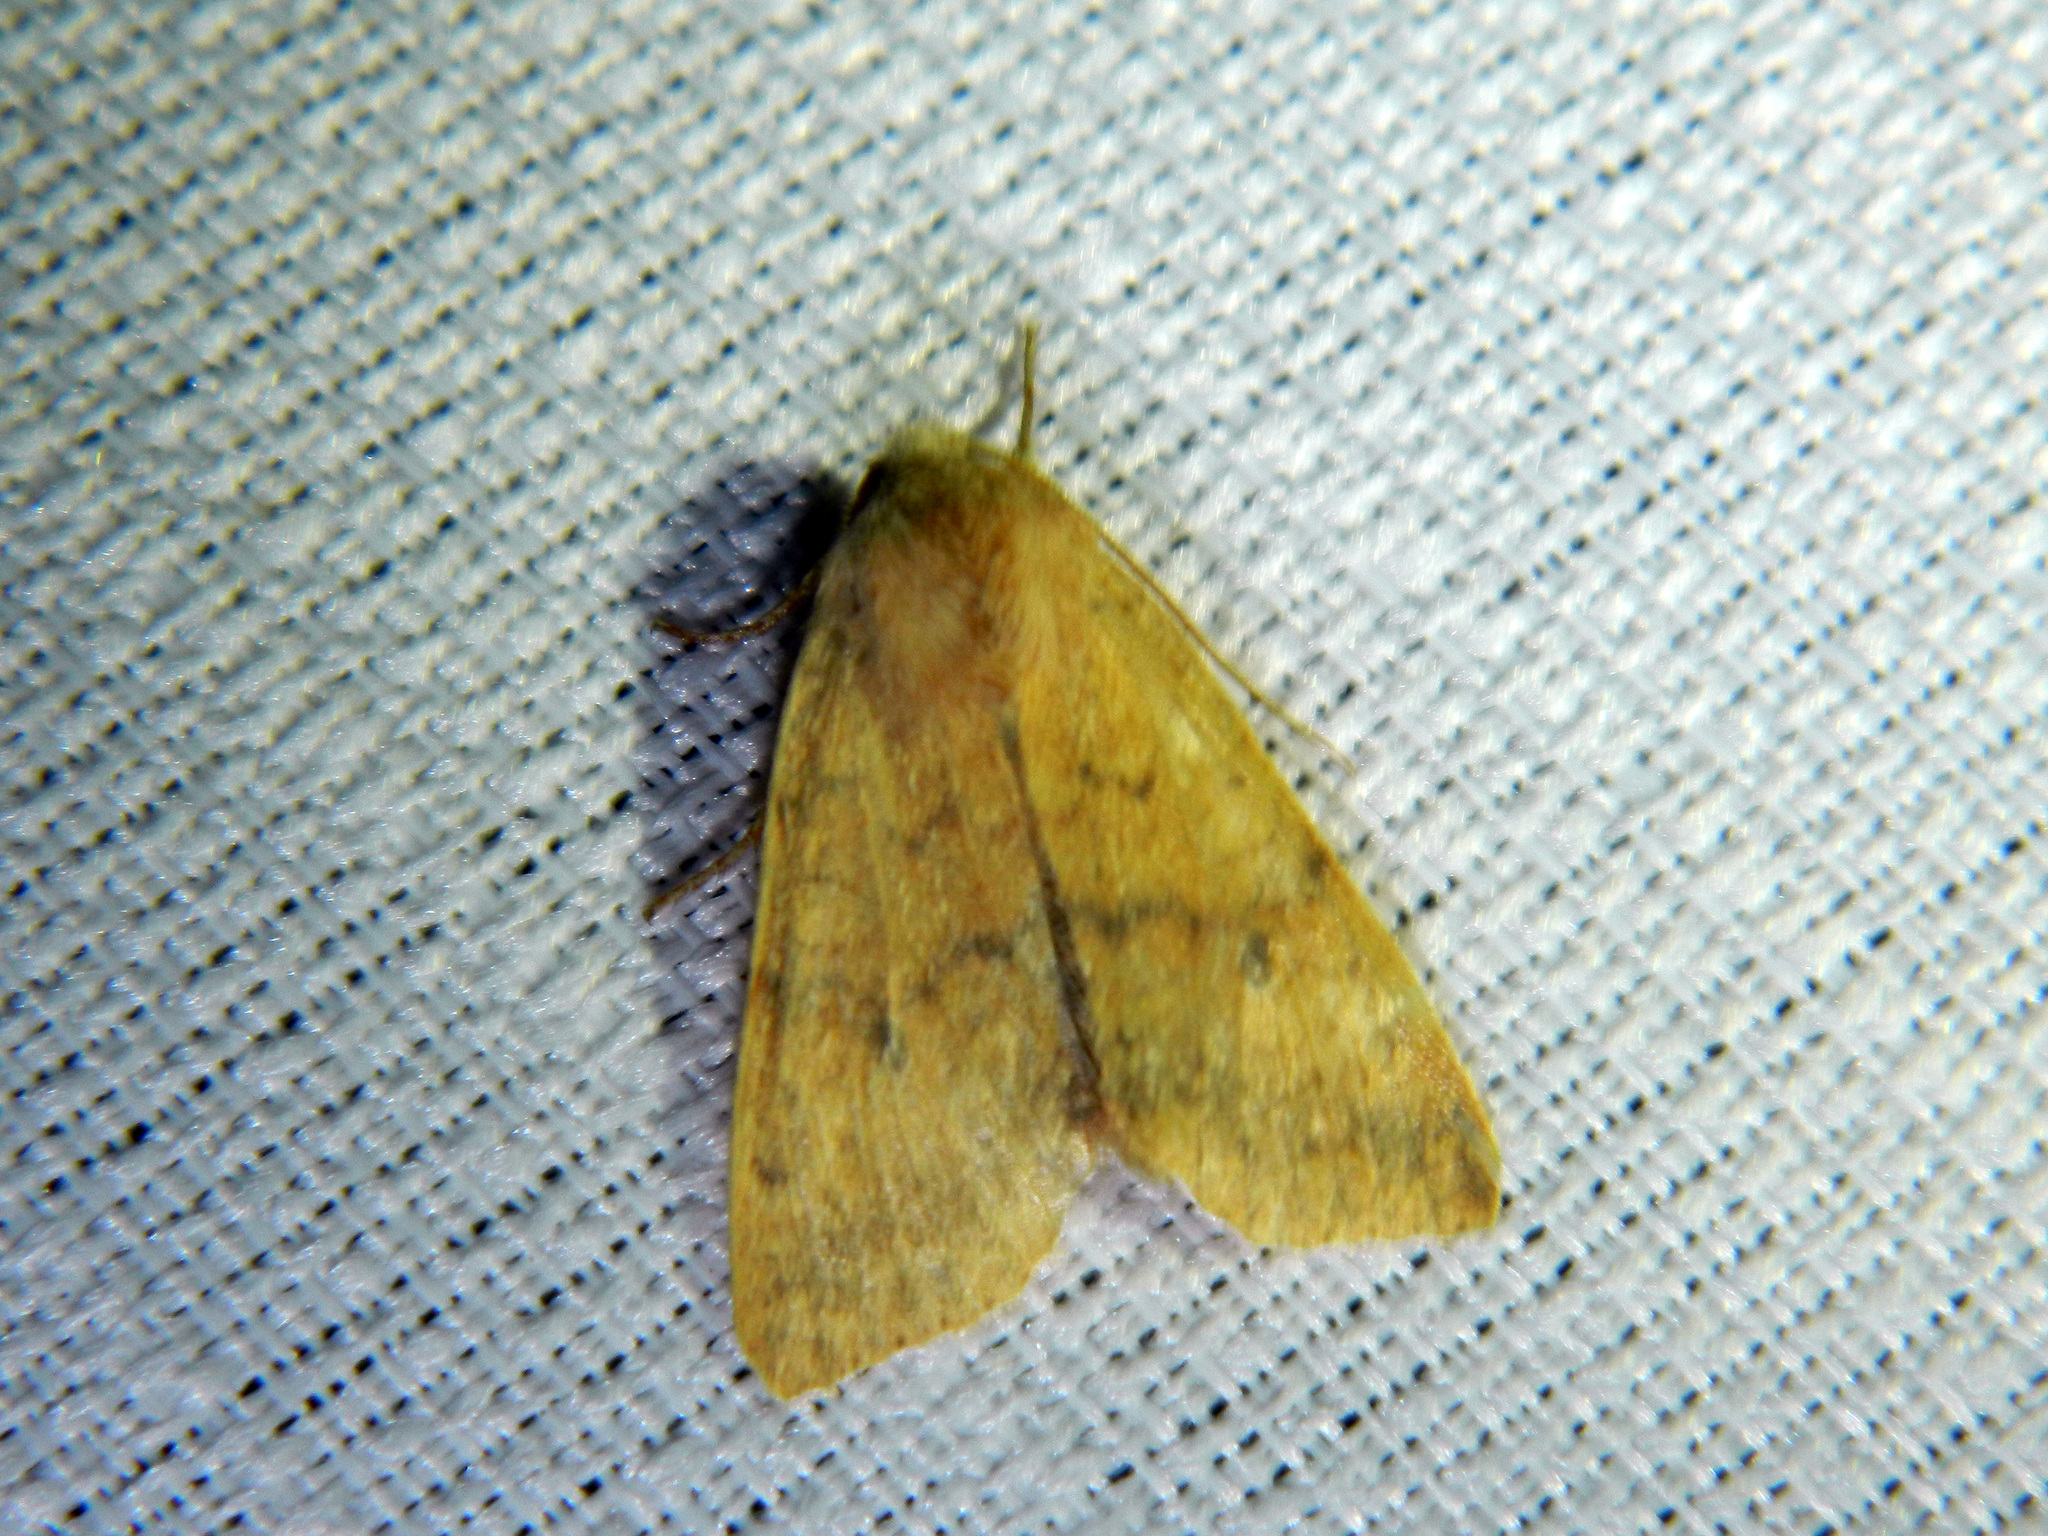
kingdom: Animalia
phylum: Arthropoda
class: Insecta
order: Lepidoptera
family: Noctuidae
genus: Agrochola
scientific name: Agrochola bicolorago
